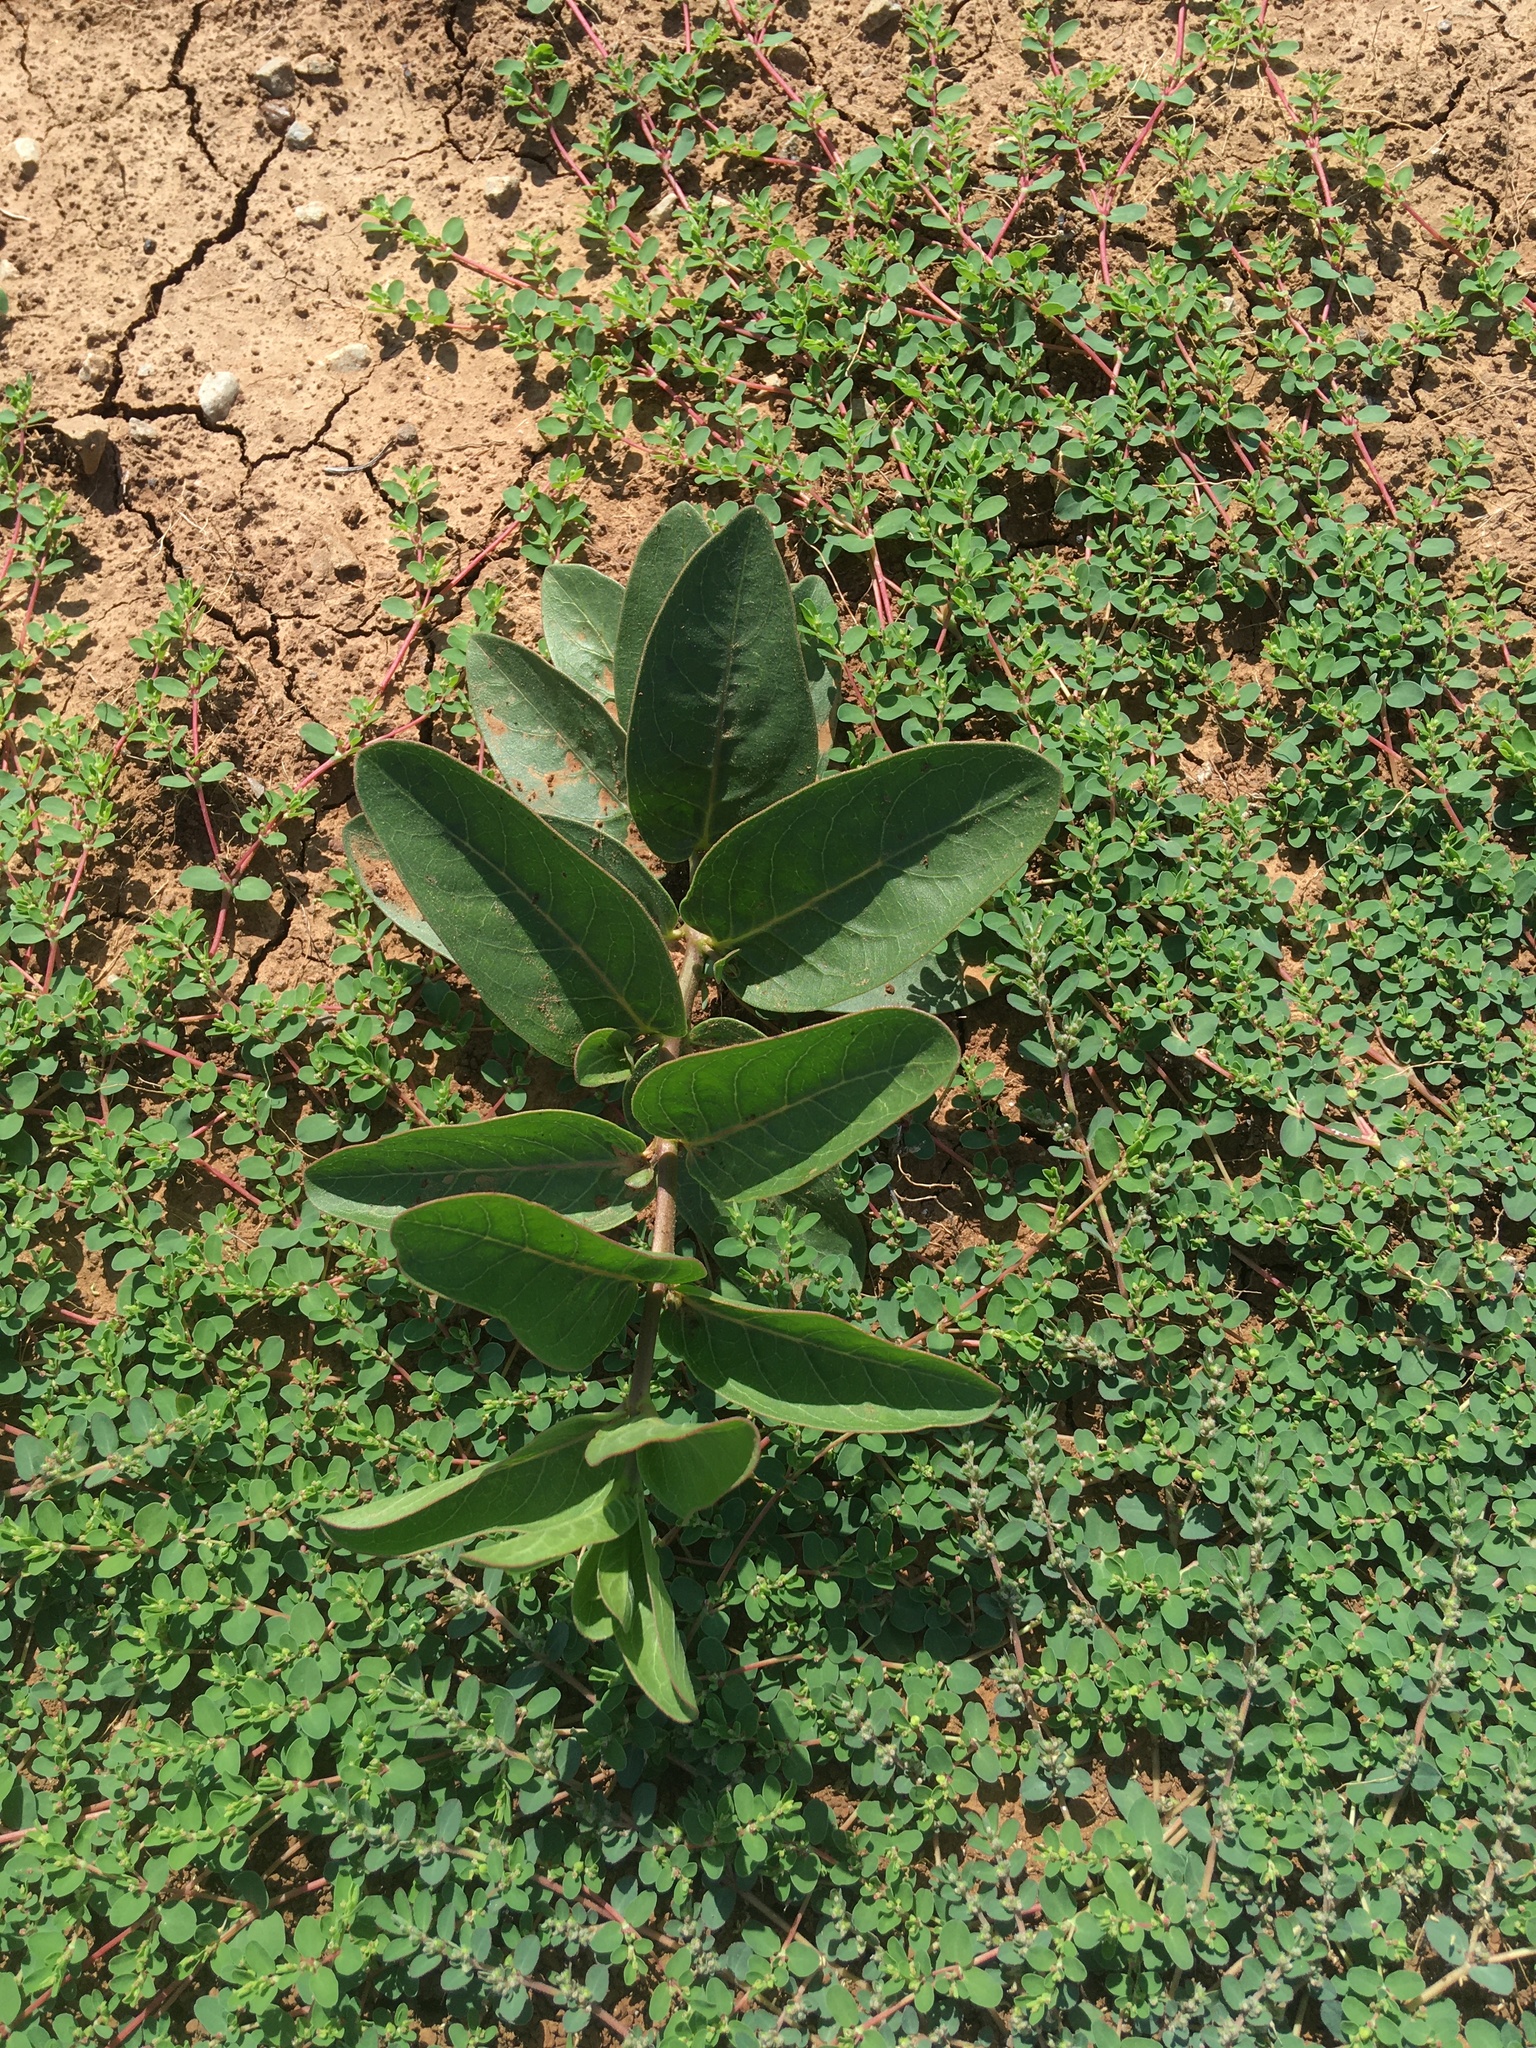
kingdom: Plantae
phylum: Tracheophyta
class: Magnoliopsida
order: Gentianales
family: Apocynaceae
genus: Asclepias
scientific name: Asclepias viridis
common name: Antelope-horns
